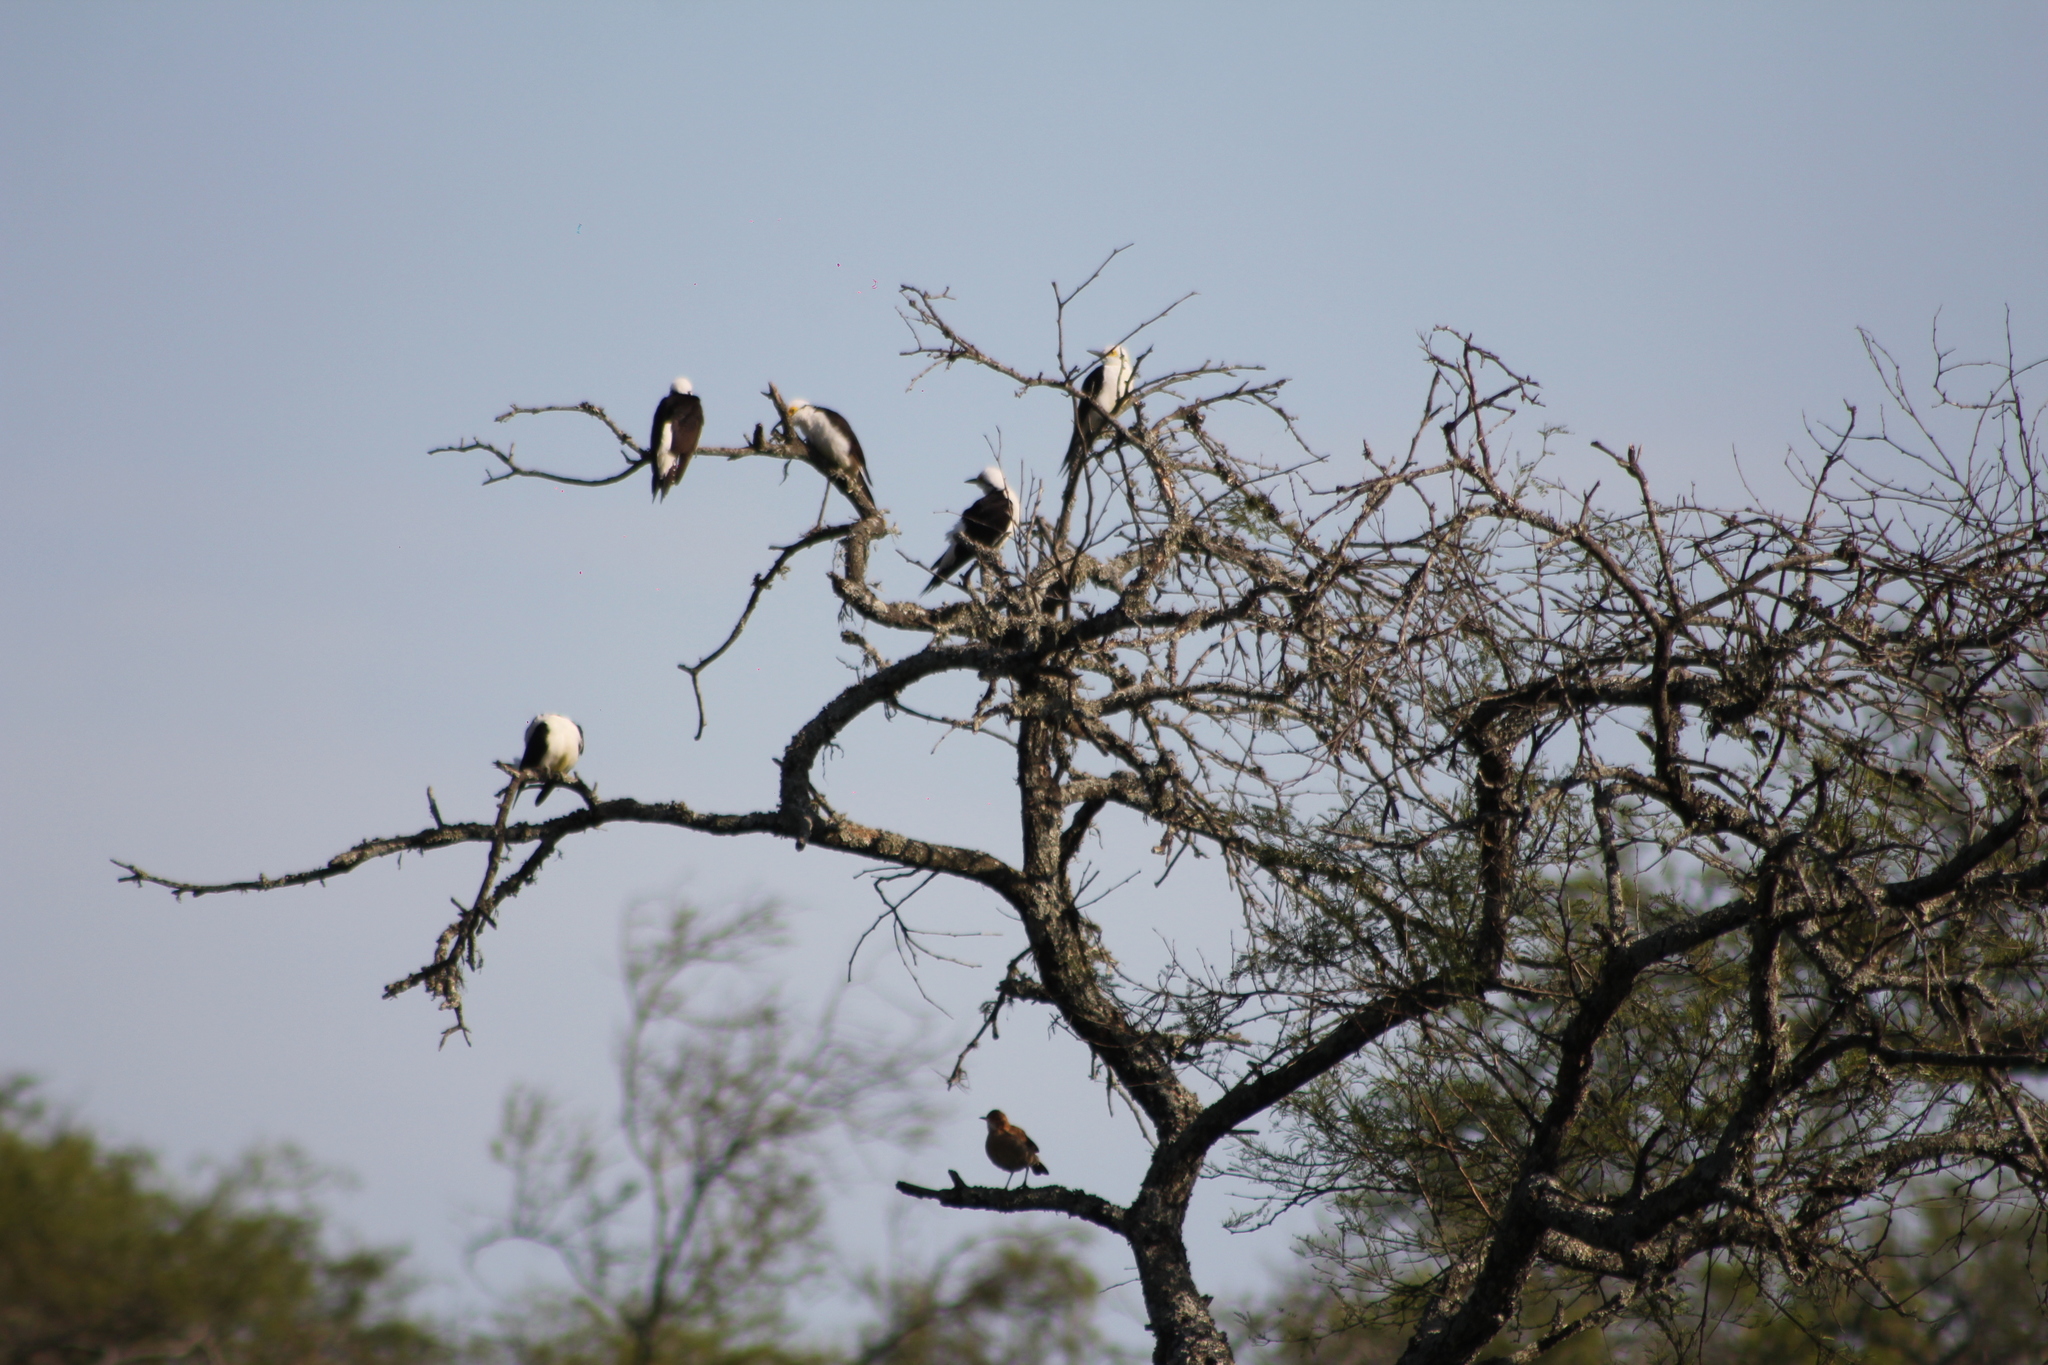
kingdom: Animalia
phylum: Chordata
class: Aves
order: Piciformes
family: Picidae
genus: Melanerpes
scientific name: Melanerpes candidus
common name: White woodpecker
